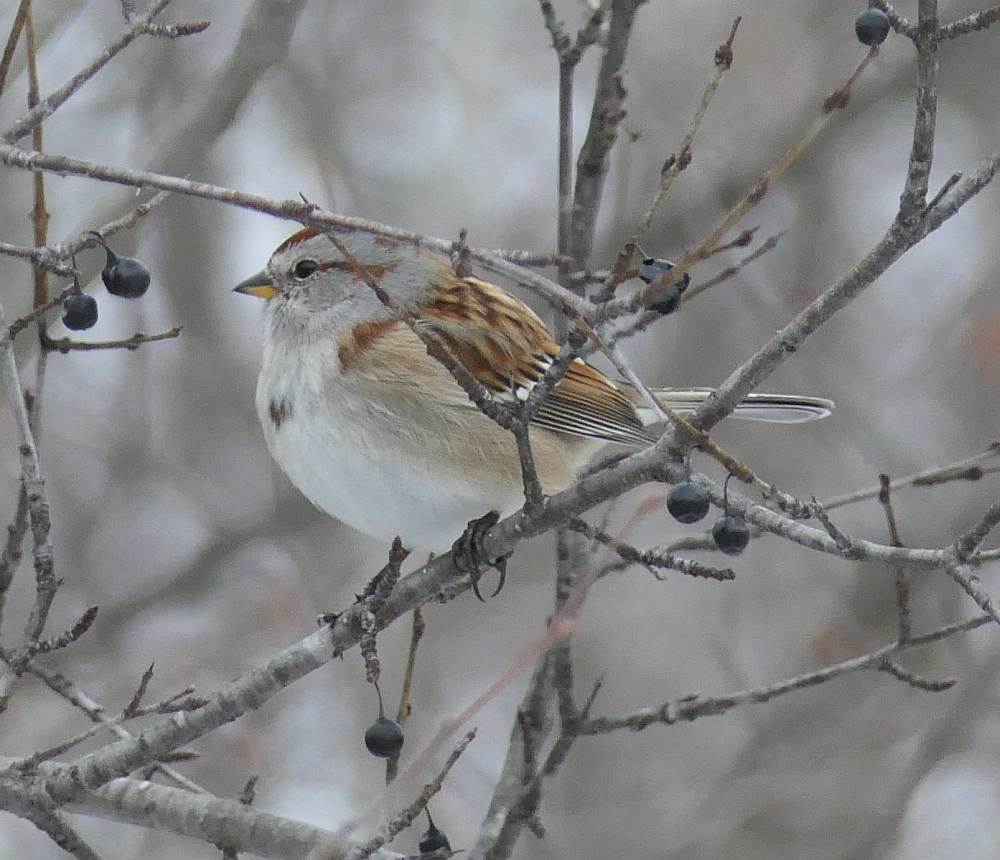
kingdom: Animalia
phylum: Chordata
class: Aves
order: Passeriformes
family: Passerellidae
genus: Spizelloides
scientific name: Spizelloides arborea
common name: American tree sparrow
